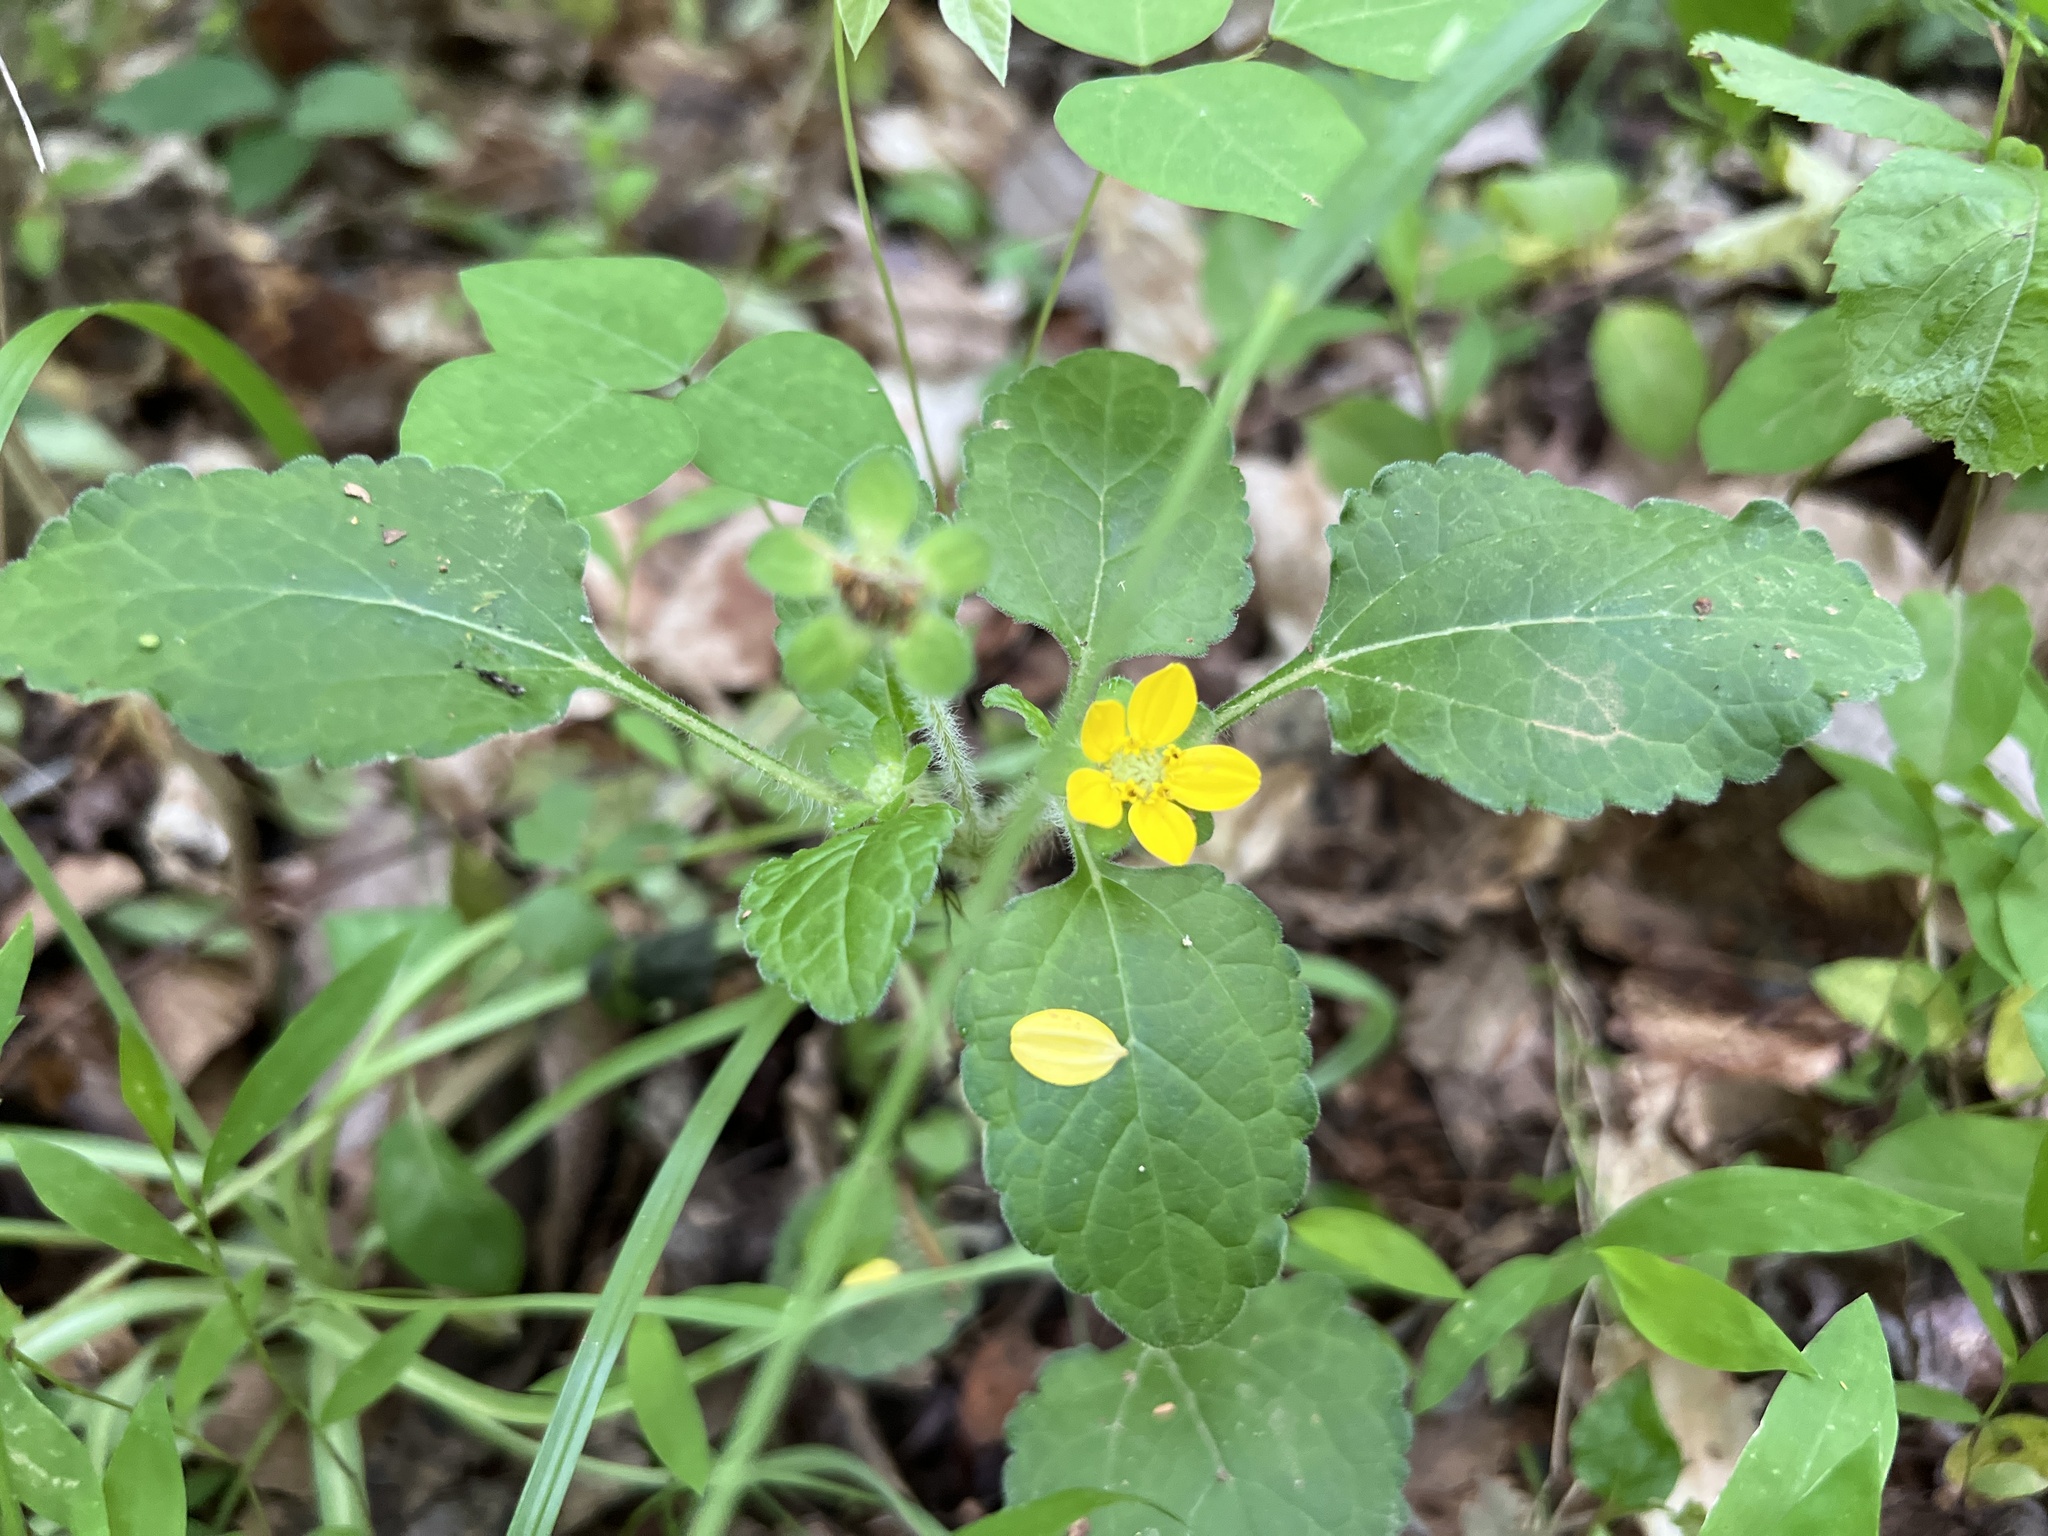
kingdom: Plantae
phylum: Tracheophyta
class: Magnoliopsida
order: Asterales
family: Asteraceae
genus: Chrysogonum
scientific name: Chrysogonum virginianum
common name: Golden-knee
